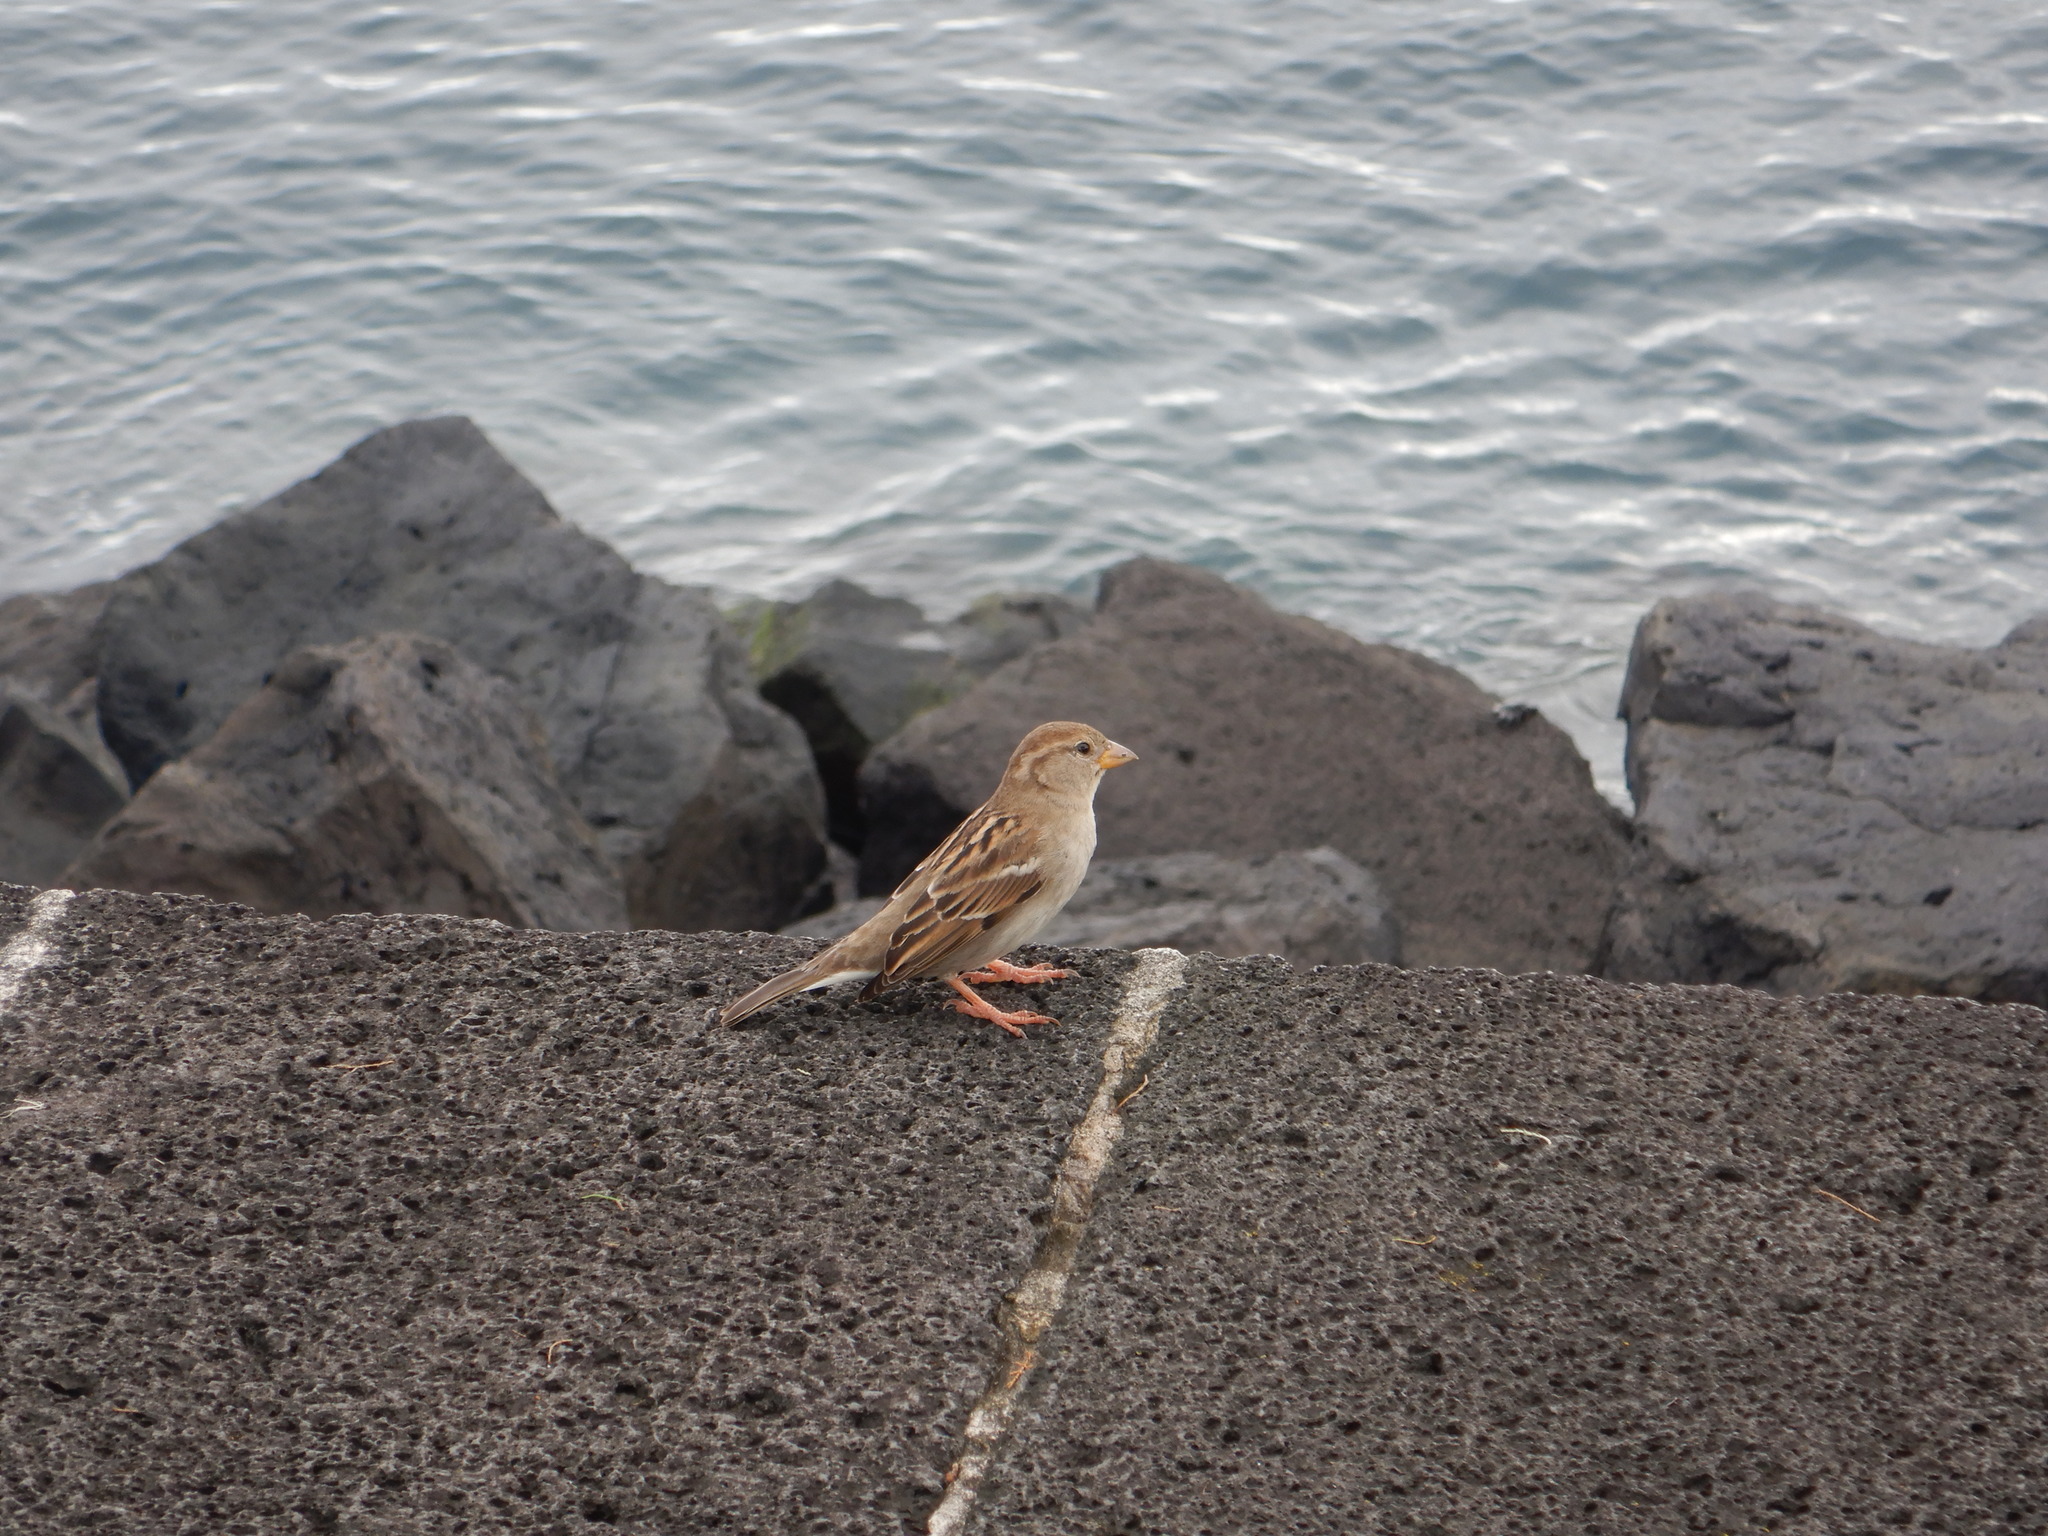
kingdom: Animalia
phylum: Chordata
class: Aves
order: Passeriformes
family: Passeridae
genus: Passer
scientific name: Passer domesticus
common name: House sparrow
